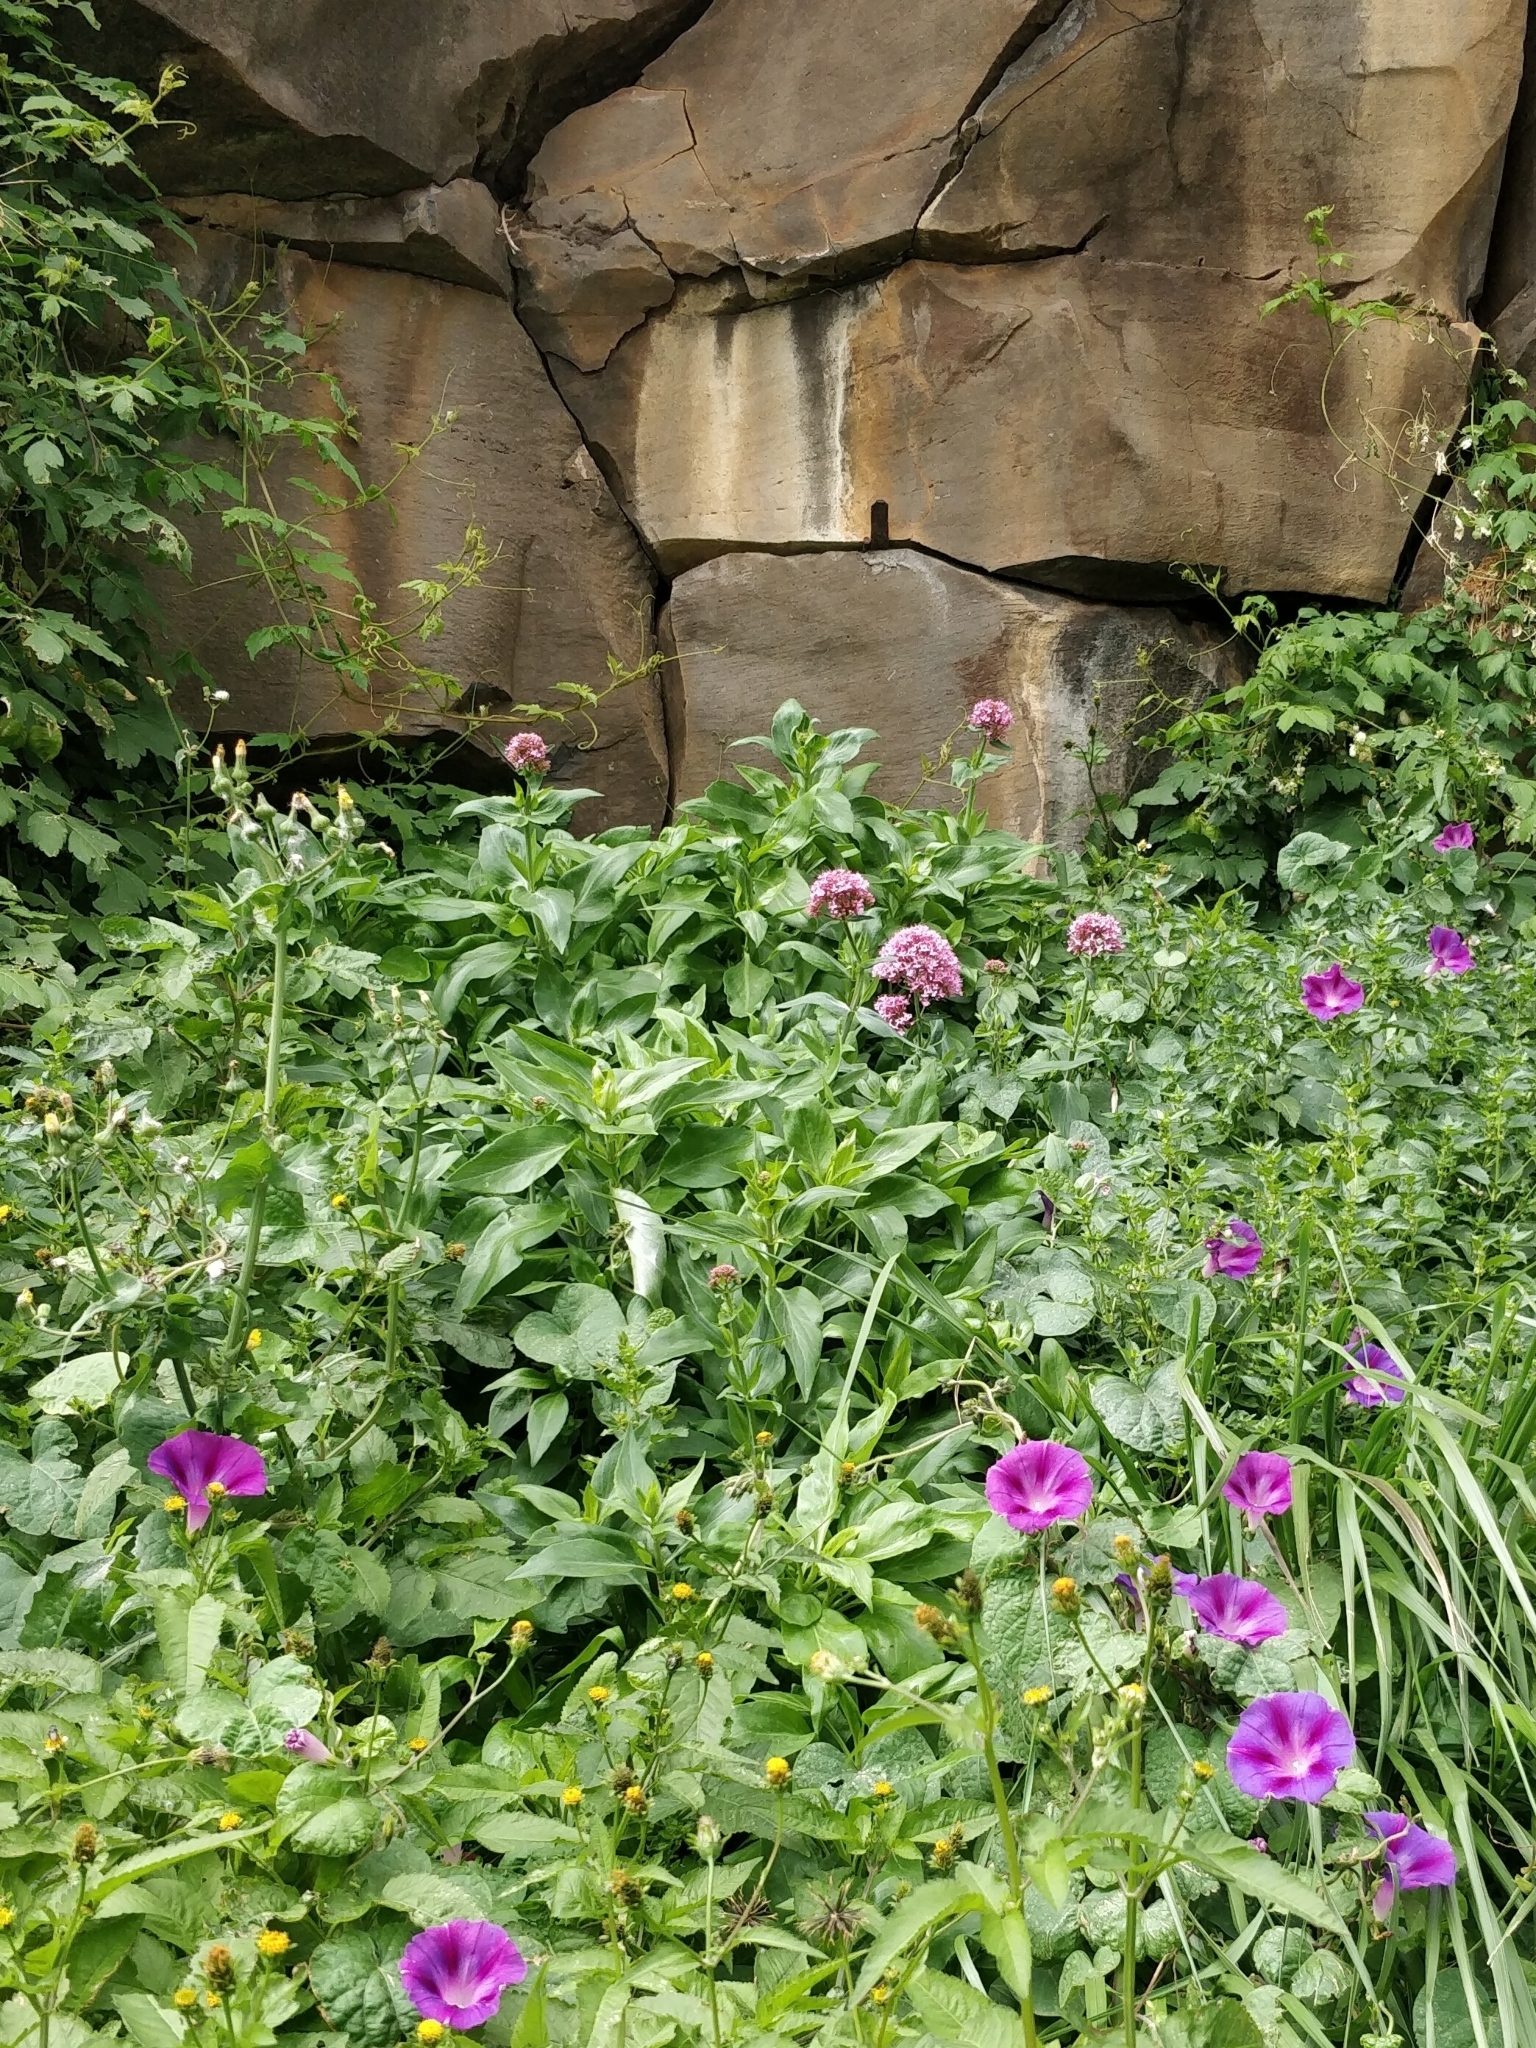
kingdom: Plantae
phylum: Tracheophyta
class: Magnoliopsida
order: Dipsacales
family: Caprifoliaceae
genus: Centranthus
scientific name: Centranthus ruber
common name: Red valerian
